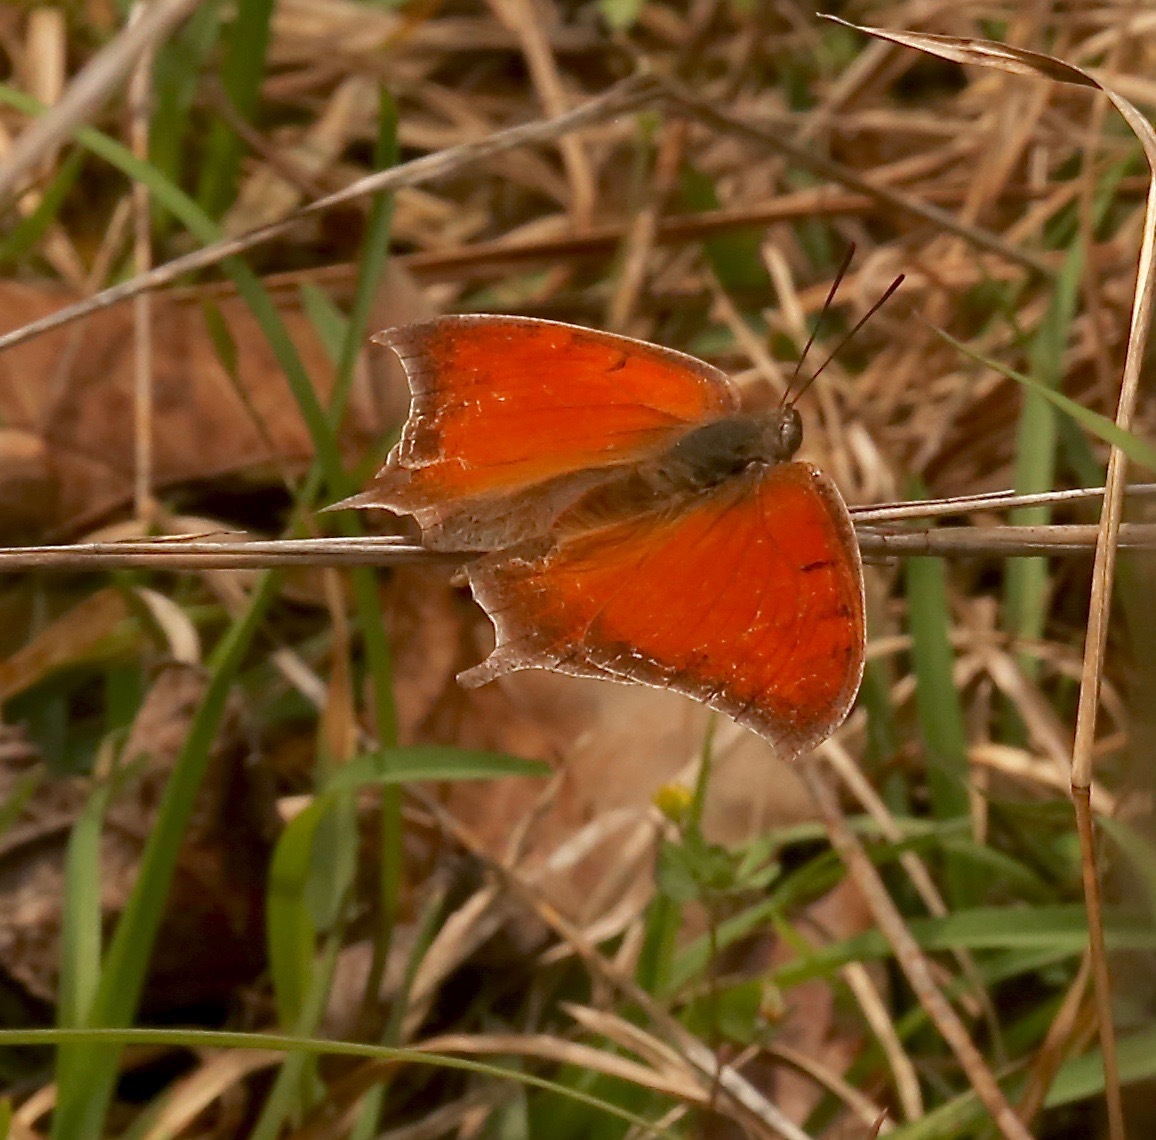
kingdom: Animalia
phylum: Arthropoda
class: Insecta
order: Lepidoptera
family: Nymphalidae
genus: Anaea
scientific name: Anaea andria
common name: Goatweed leafwing
